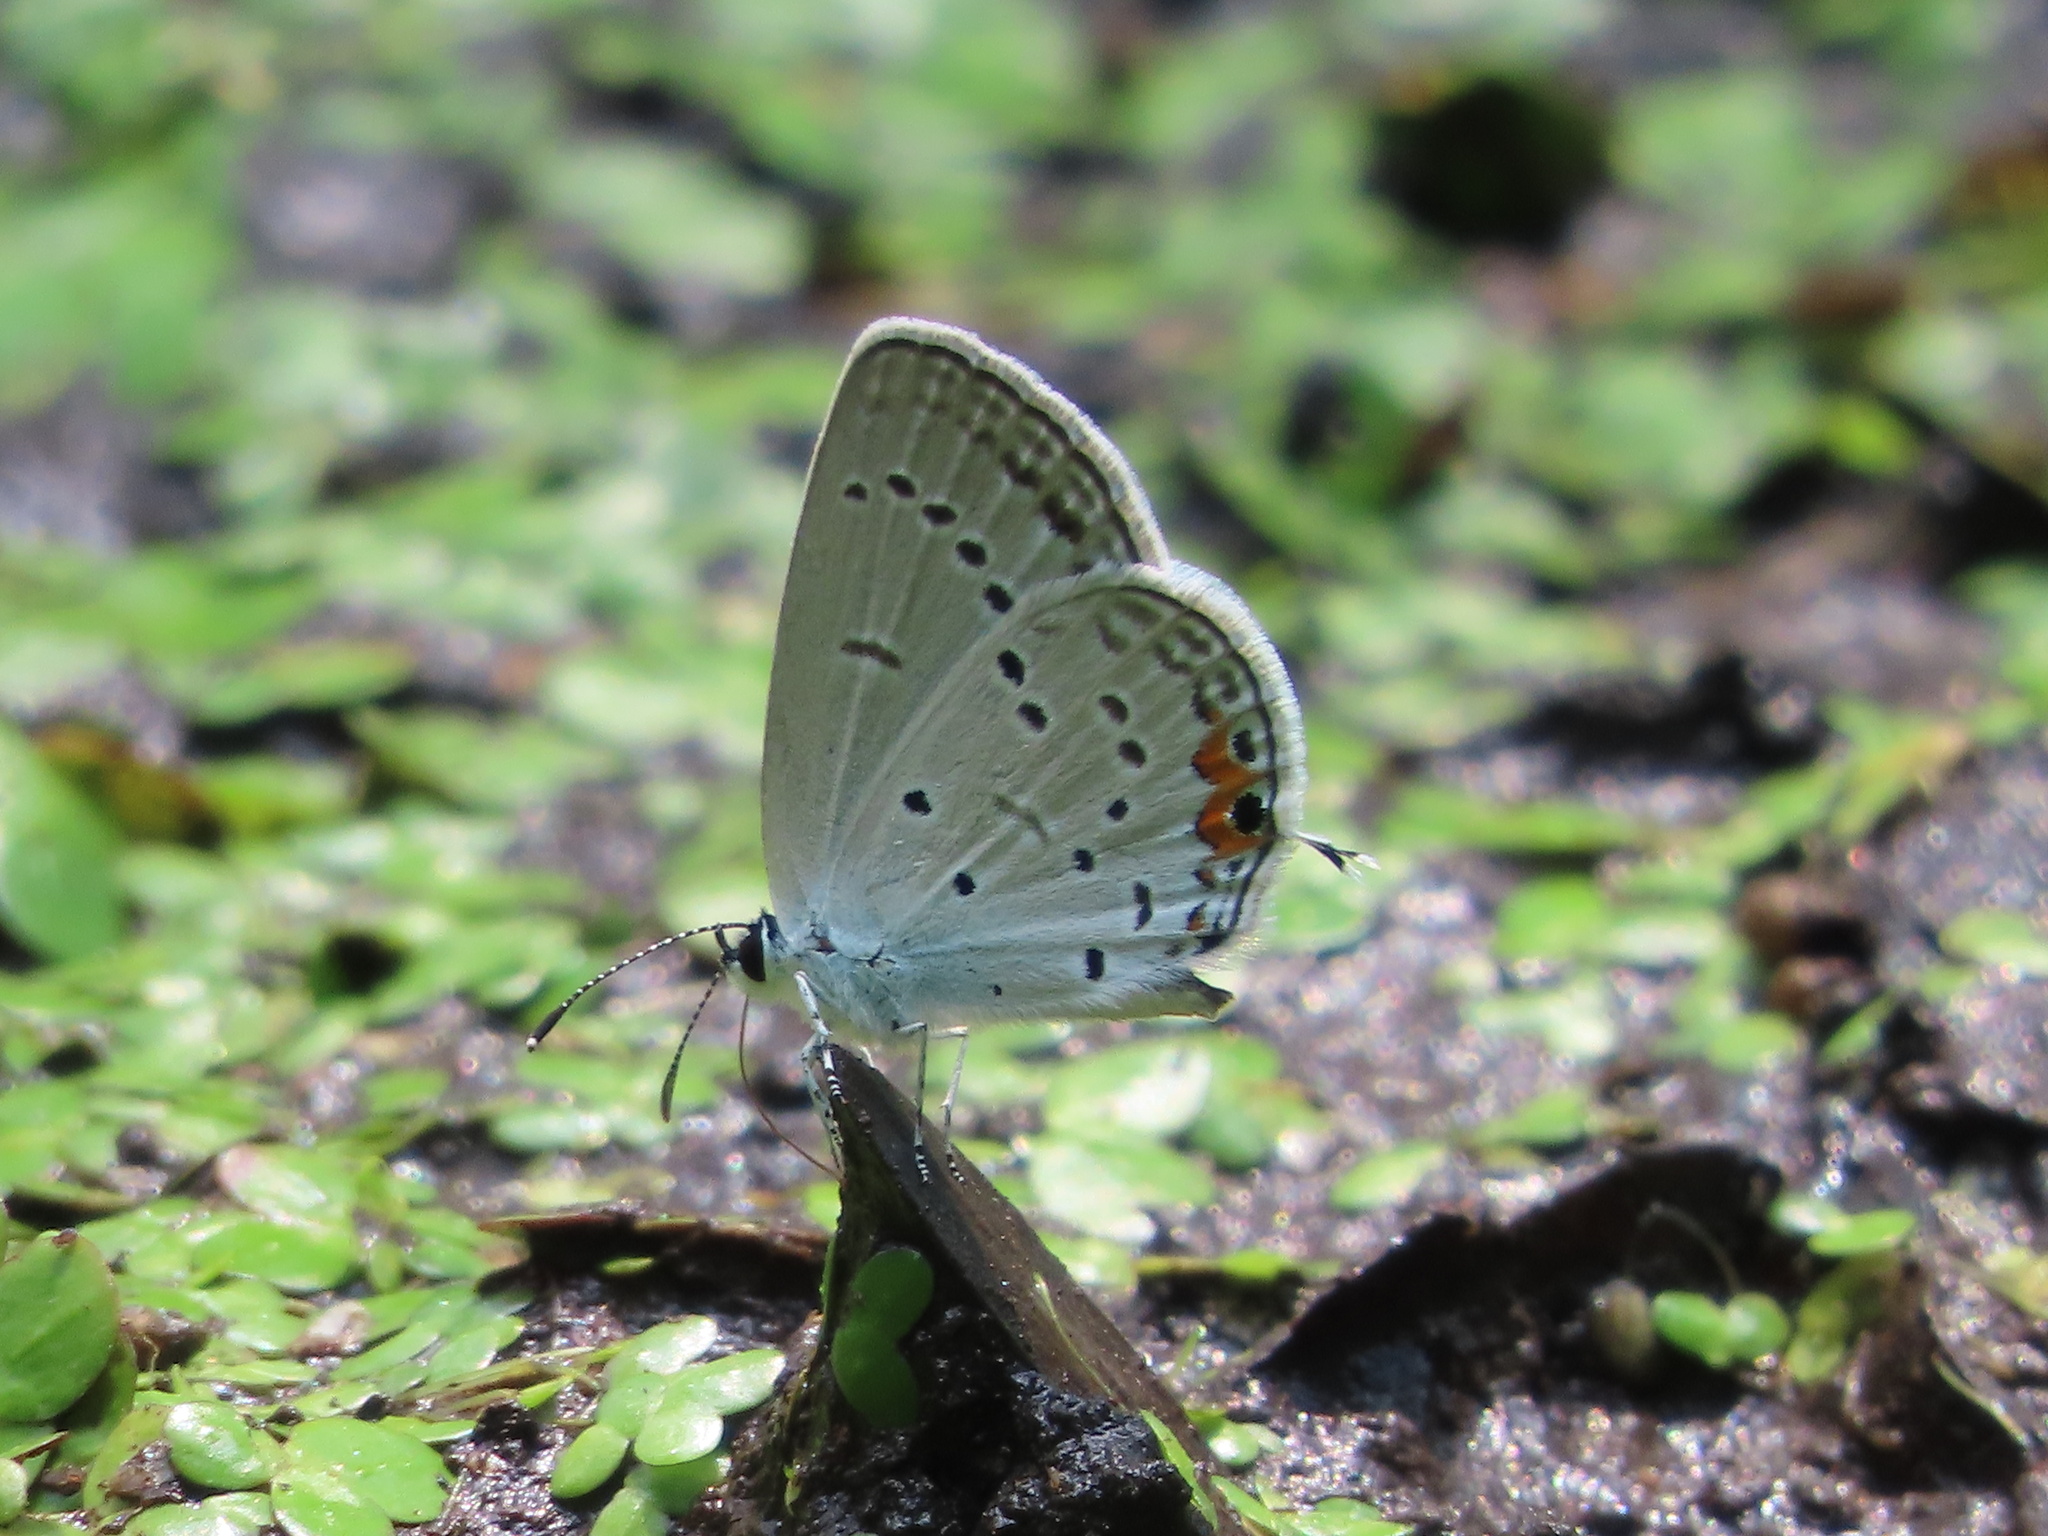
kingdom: Animalia
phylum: Arthropoda
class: Insecta
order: Lepidoptera
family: Lycaenidae
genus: Elkalyce
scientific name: Elkalyce comyntas
